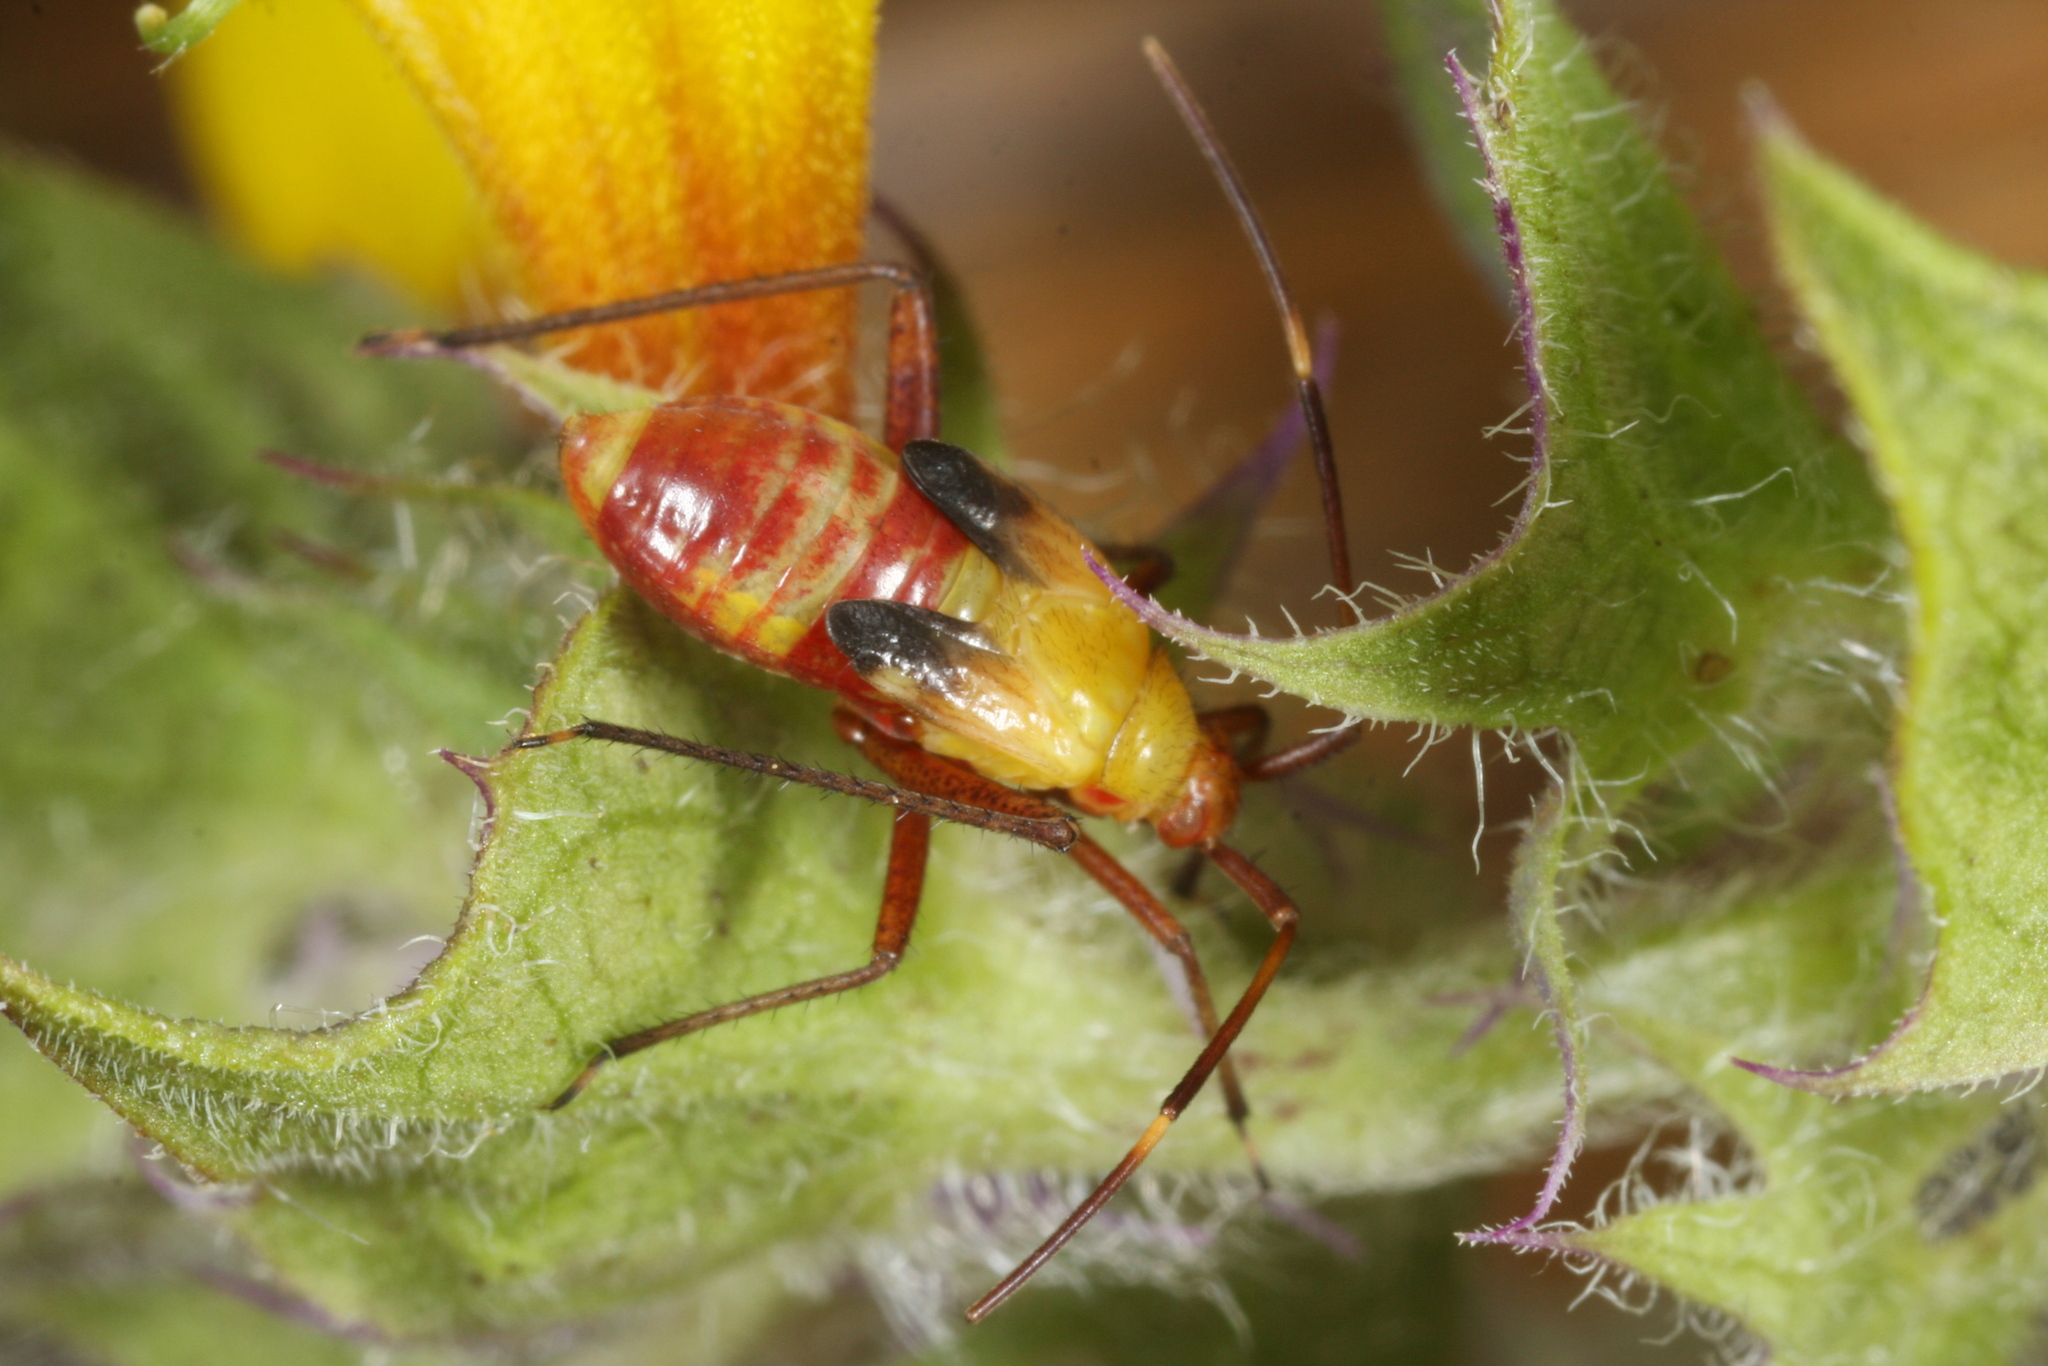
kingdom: Animalia
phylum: Arthropoda
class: Insecta
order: Hemiptera
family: Miridae
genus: Adelphocoris
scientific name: Adelphocoris reicheli
